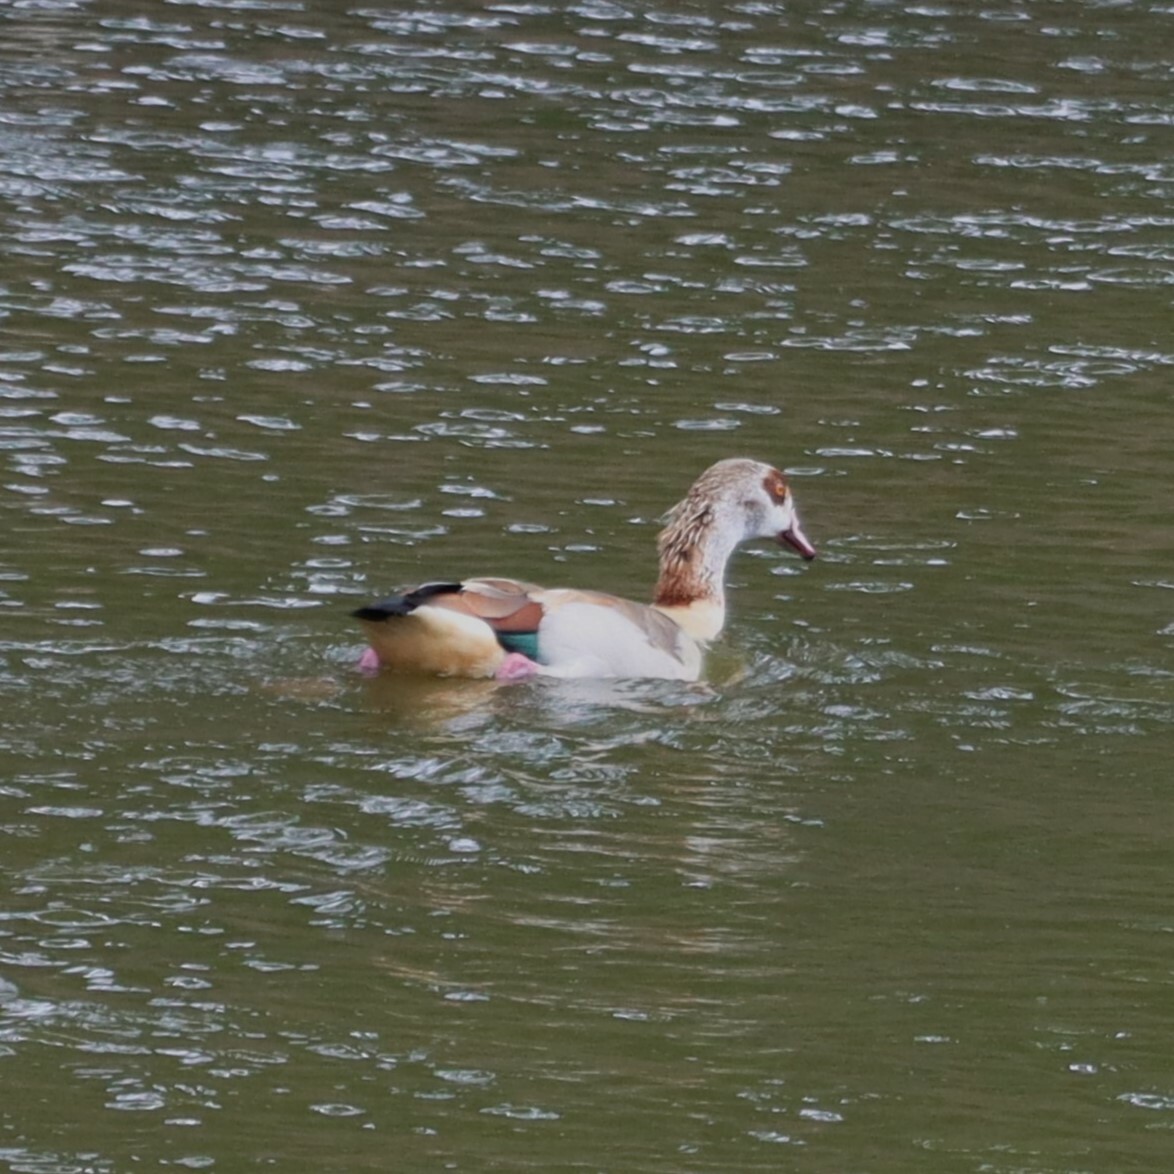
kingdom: Animalia
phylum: Chordata
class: Aves
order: Anseriformes
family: Anatidae
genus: Alopochen
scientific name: Alopochen aegyptiaca
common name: Egyptian goose
